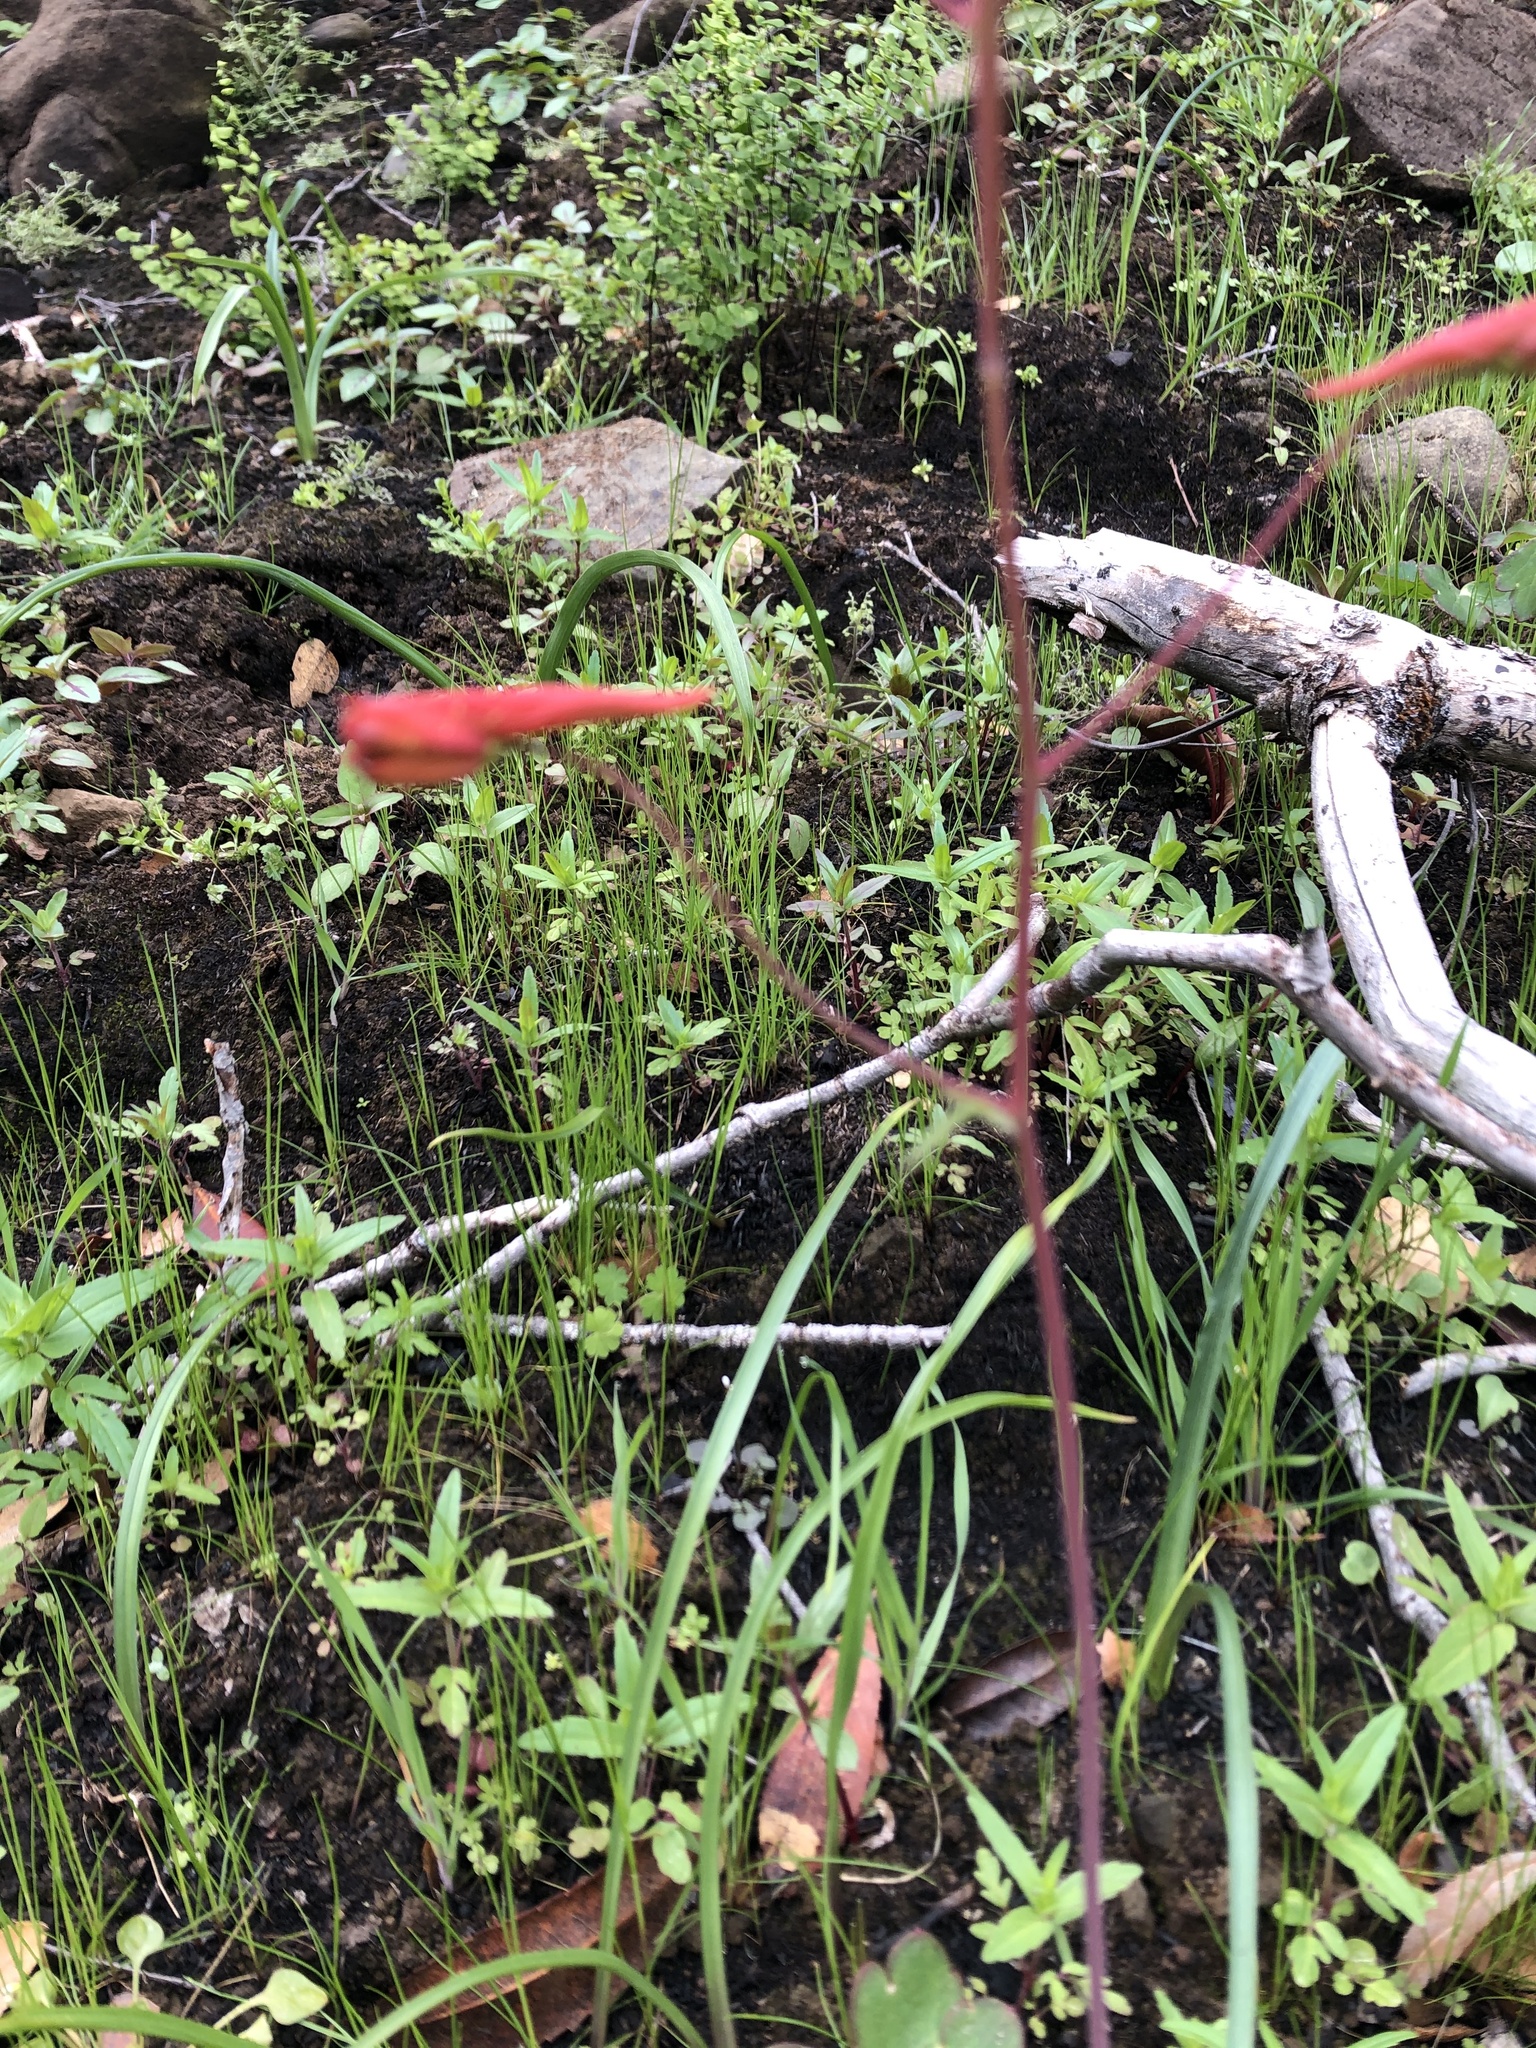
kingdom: Plantae
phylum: Tracheophyta
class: Magnoliopsida
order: Ranunculales
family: Ranunculaceae
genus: Delphinium
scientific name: Delphinium nudicaule
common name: Red larkspur
